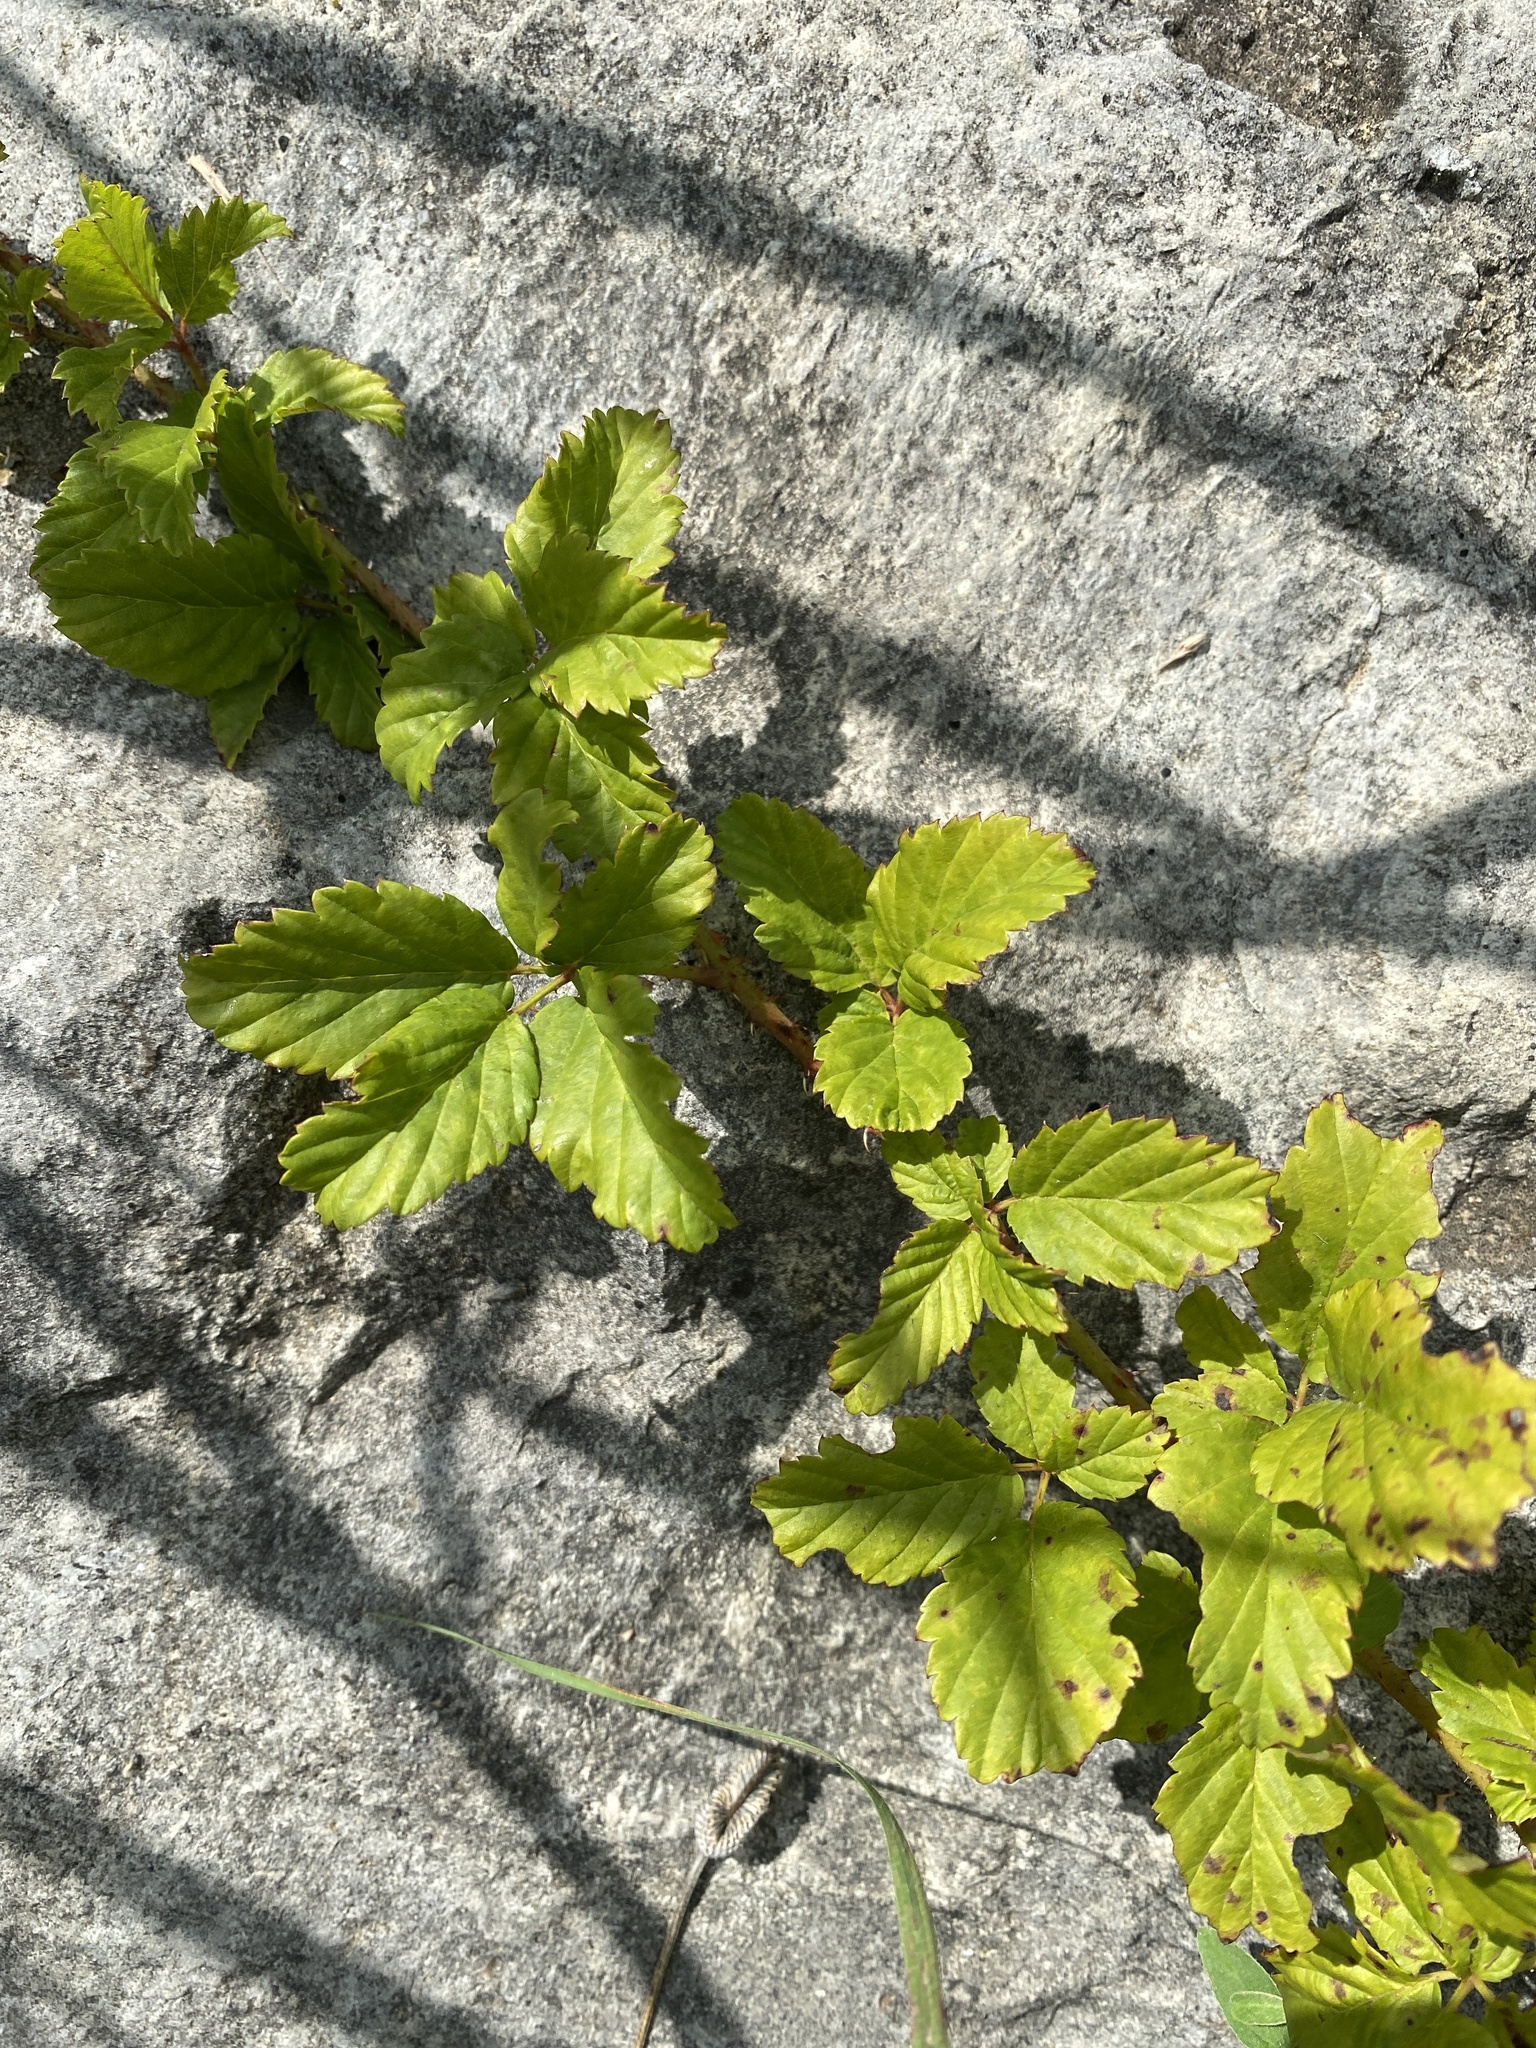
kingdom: Plantae
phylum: Tracheophyta
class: Magnoliopsida
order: Rosales
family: Rosaceae
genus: Rubus
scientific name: Rubus trivialis
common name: Southern dewberry
